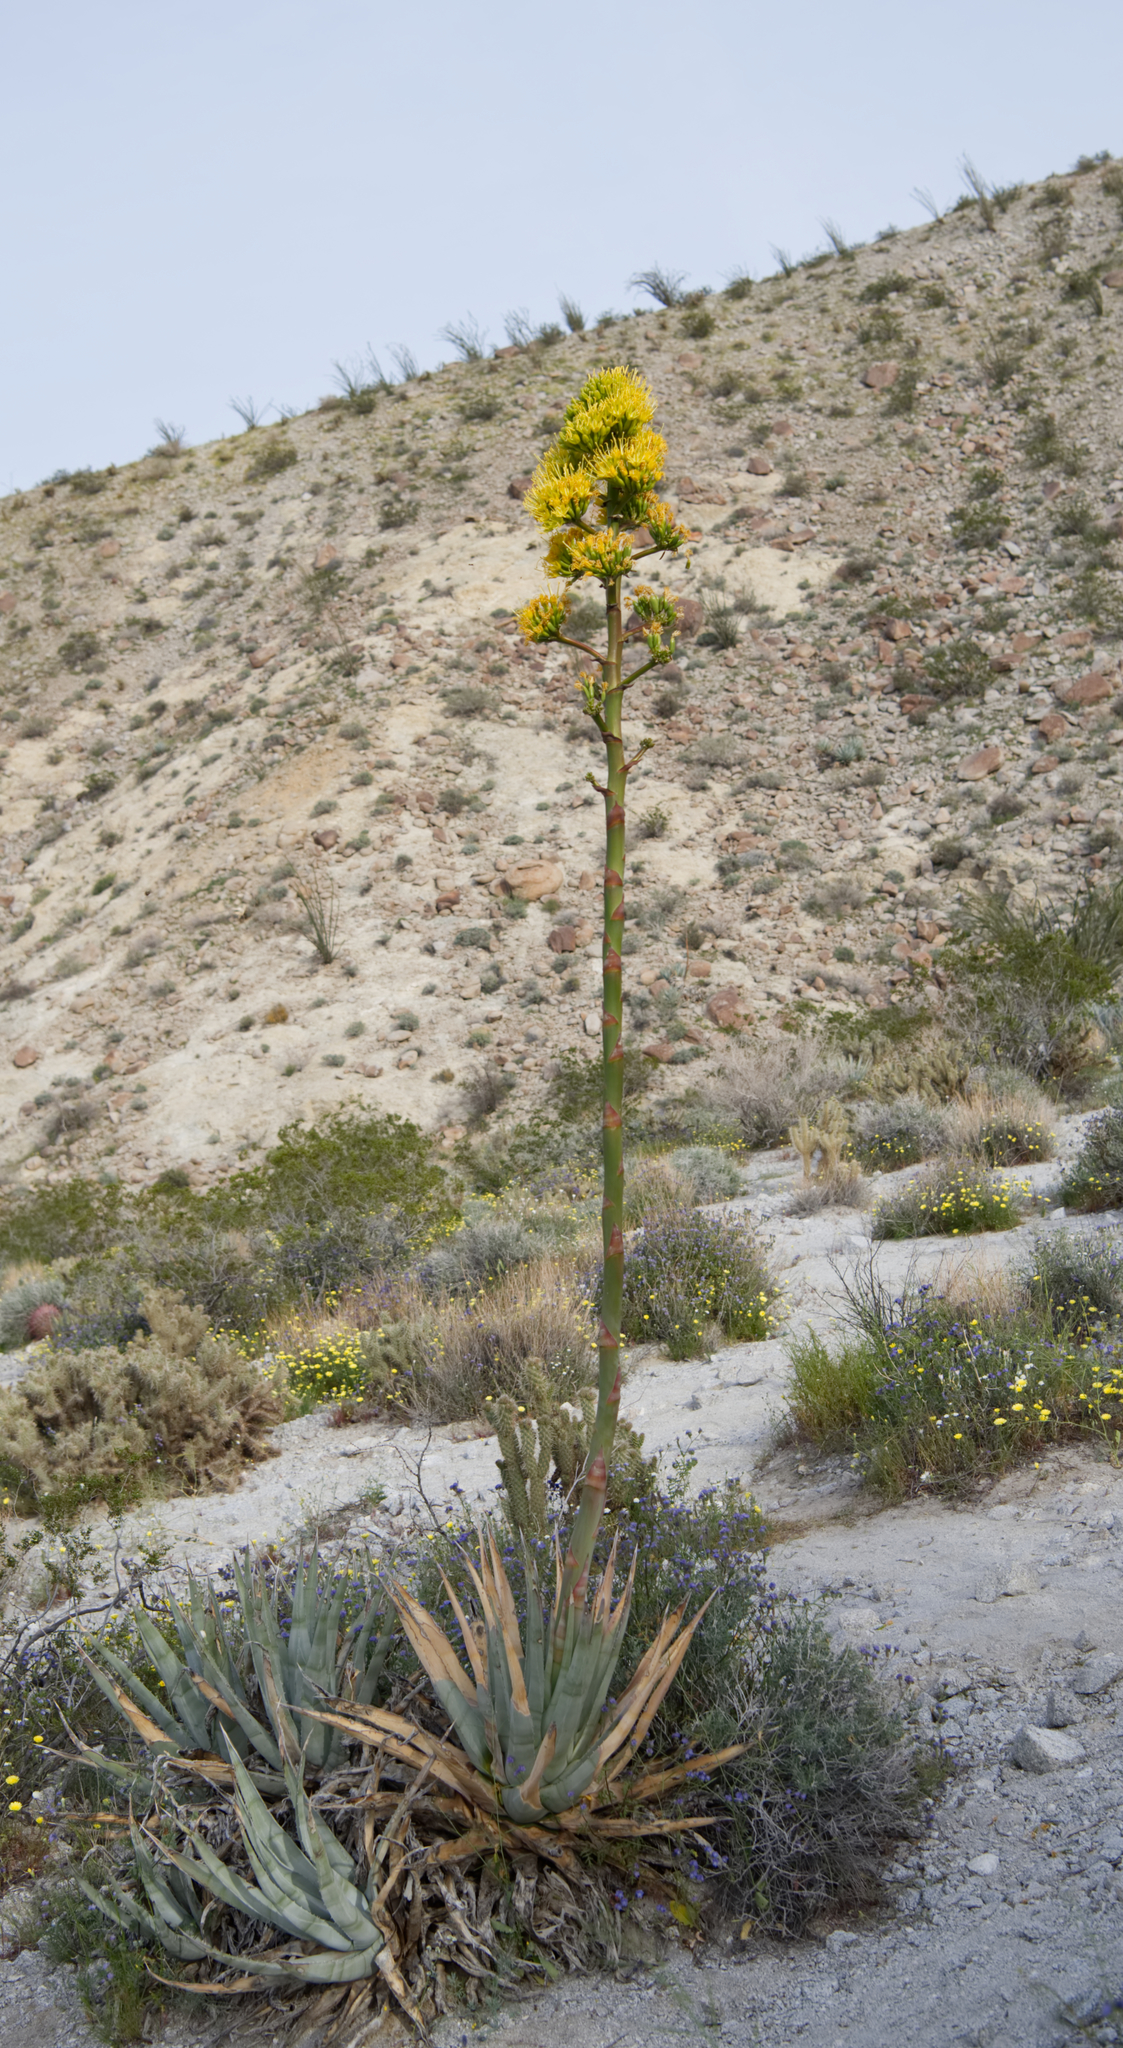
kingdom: Plantae
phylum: Tracheophyta
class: Liliopsida
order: Asparagales
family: Asparagaceae
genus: Agave
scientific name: Agave deserti
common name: Desert agave
